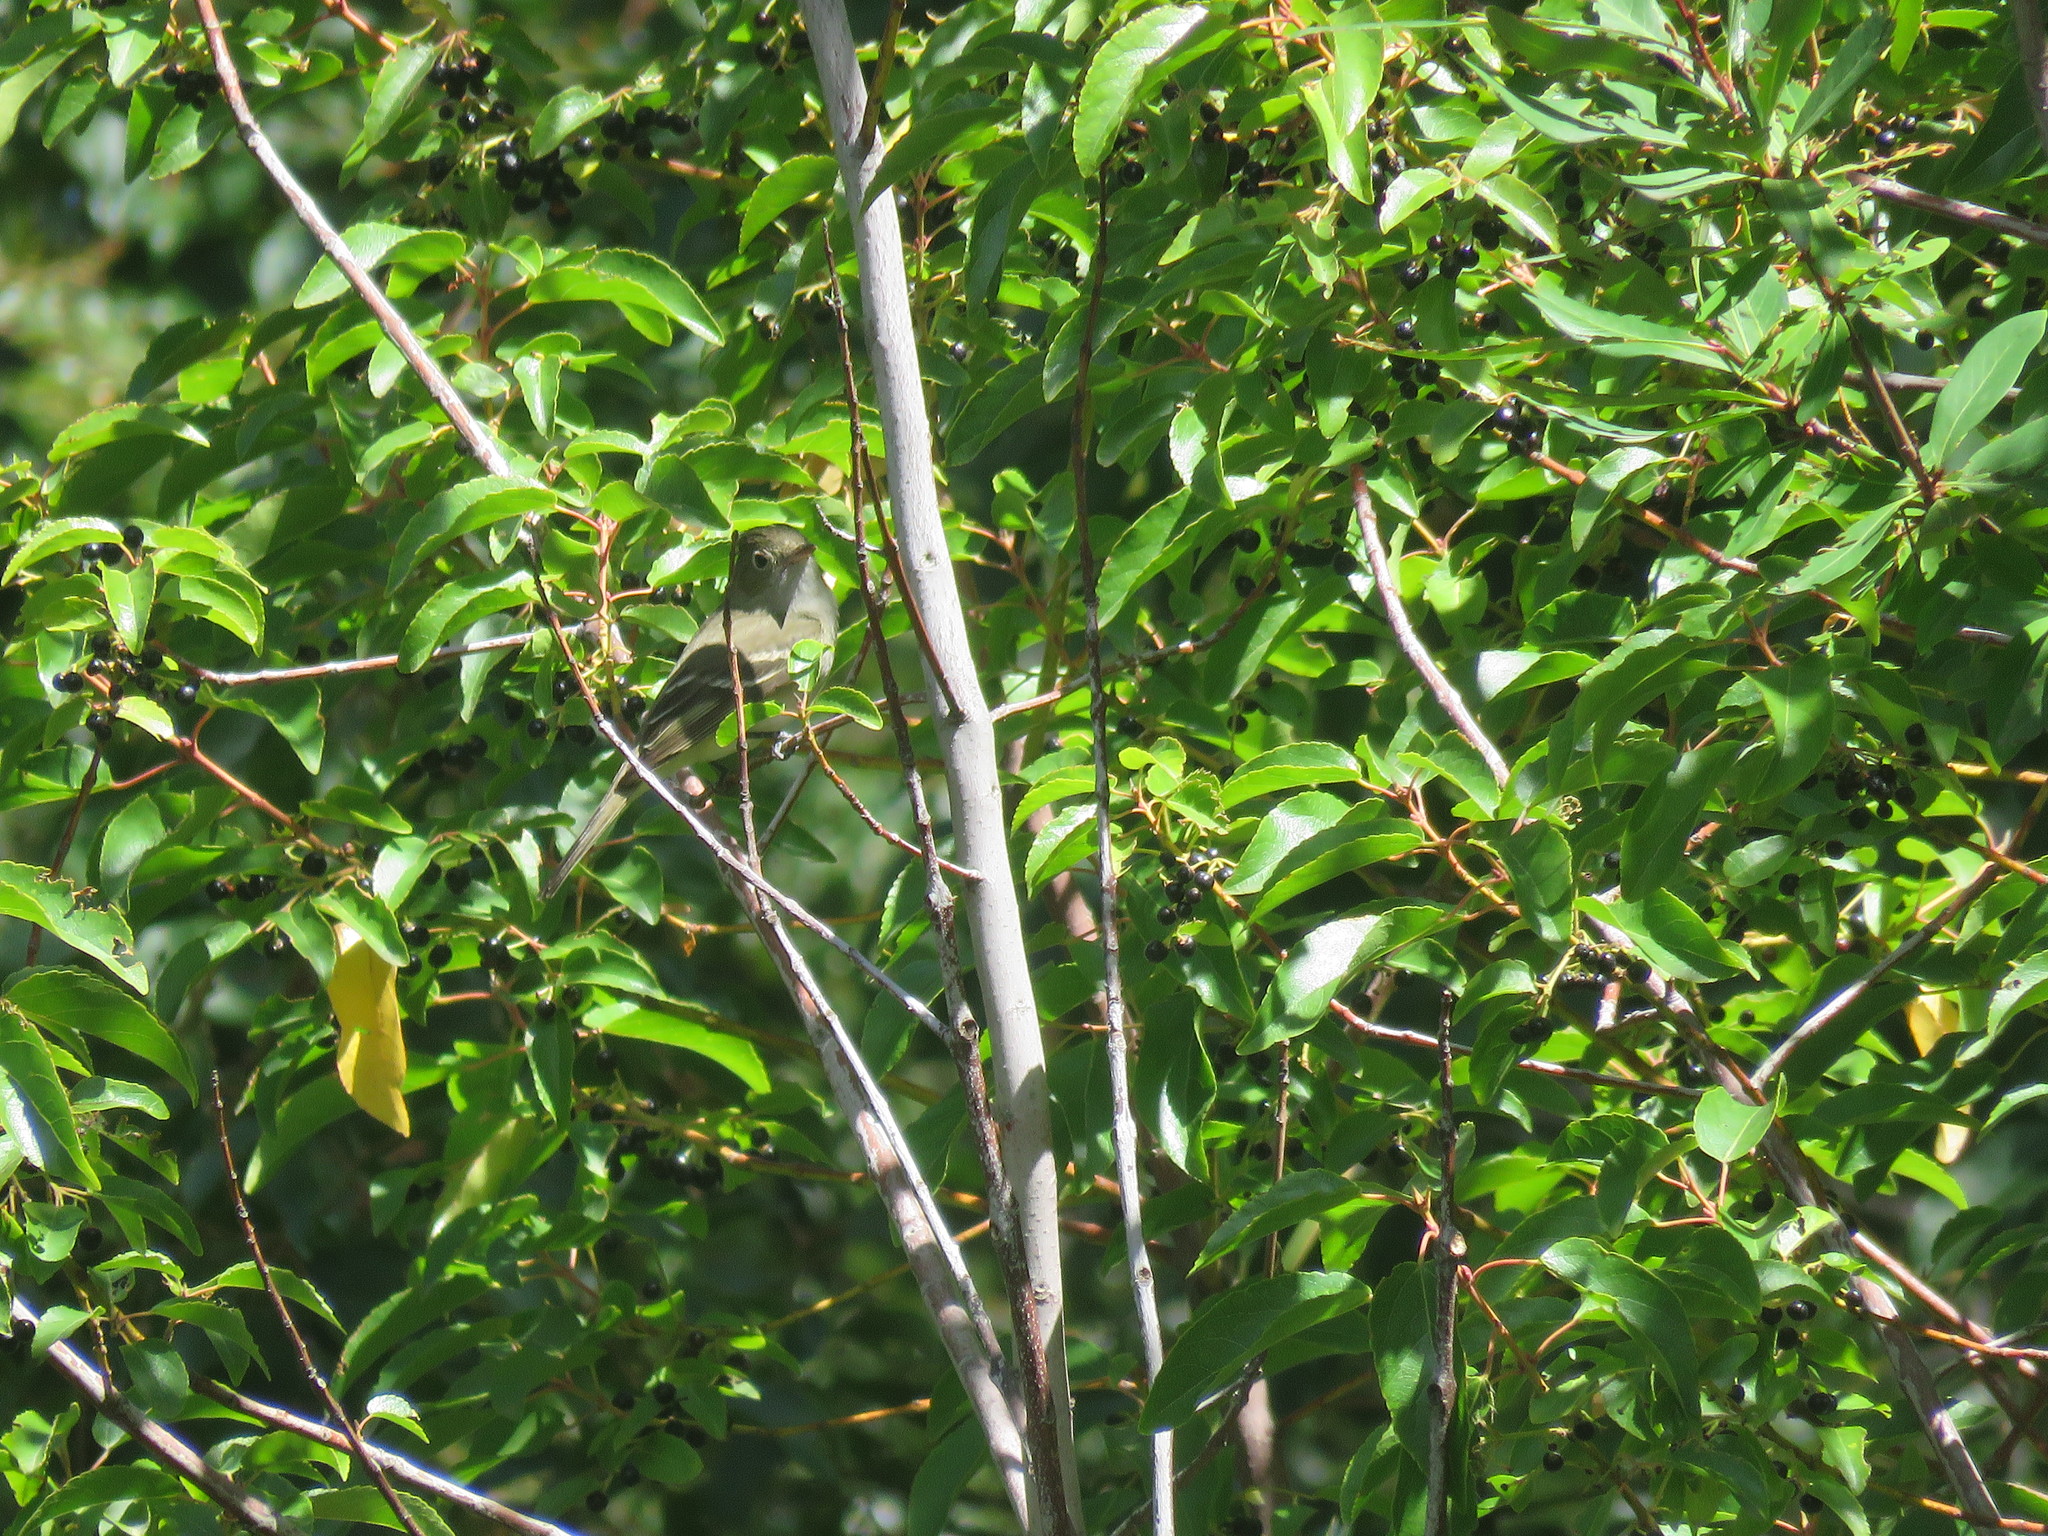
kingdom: Animalia
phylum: Chordata
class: Aves
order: Passeriformes
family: Tyrannidae
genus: Elaenia
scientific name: Elaenia albiceps
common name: White-crested elaenia
